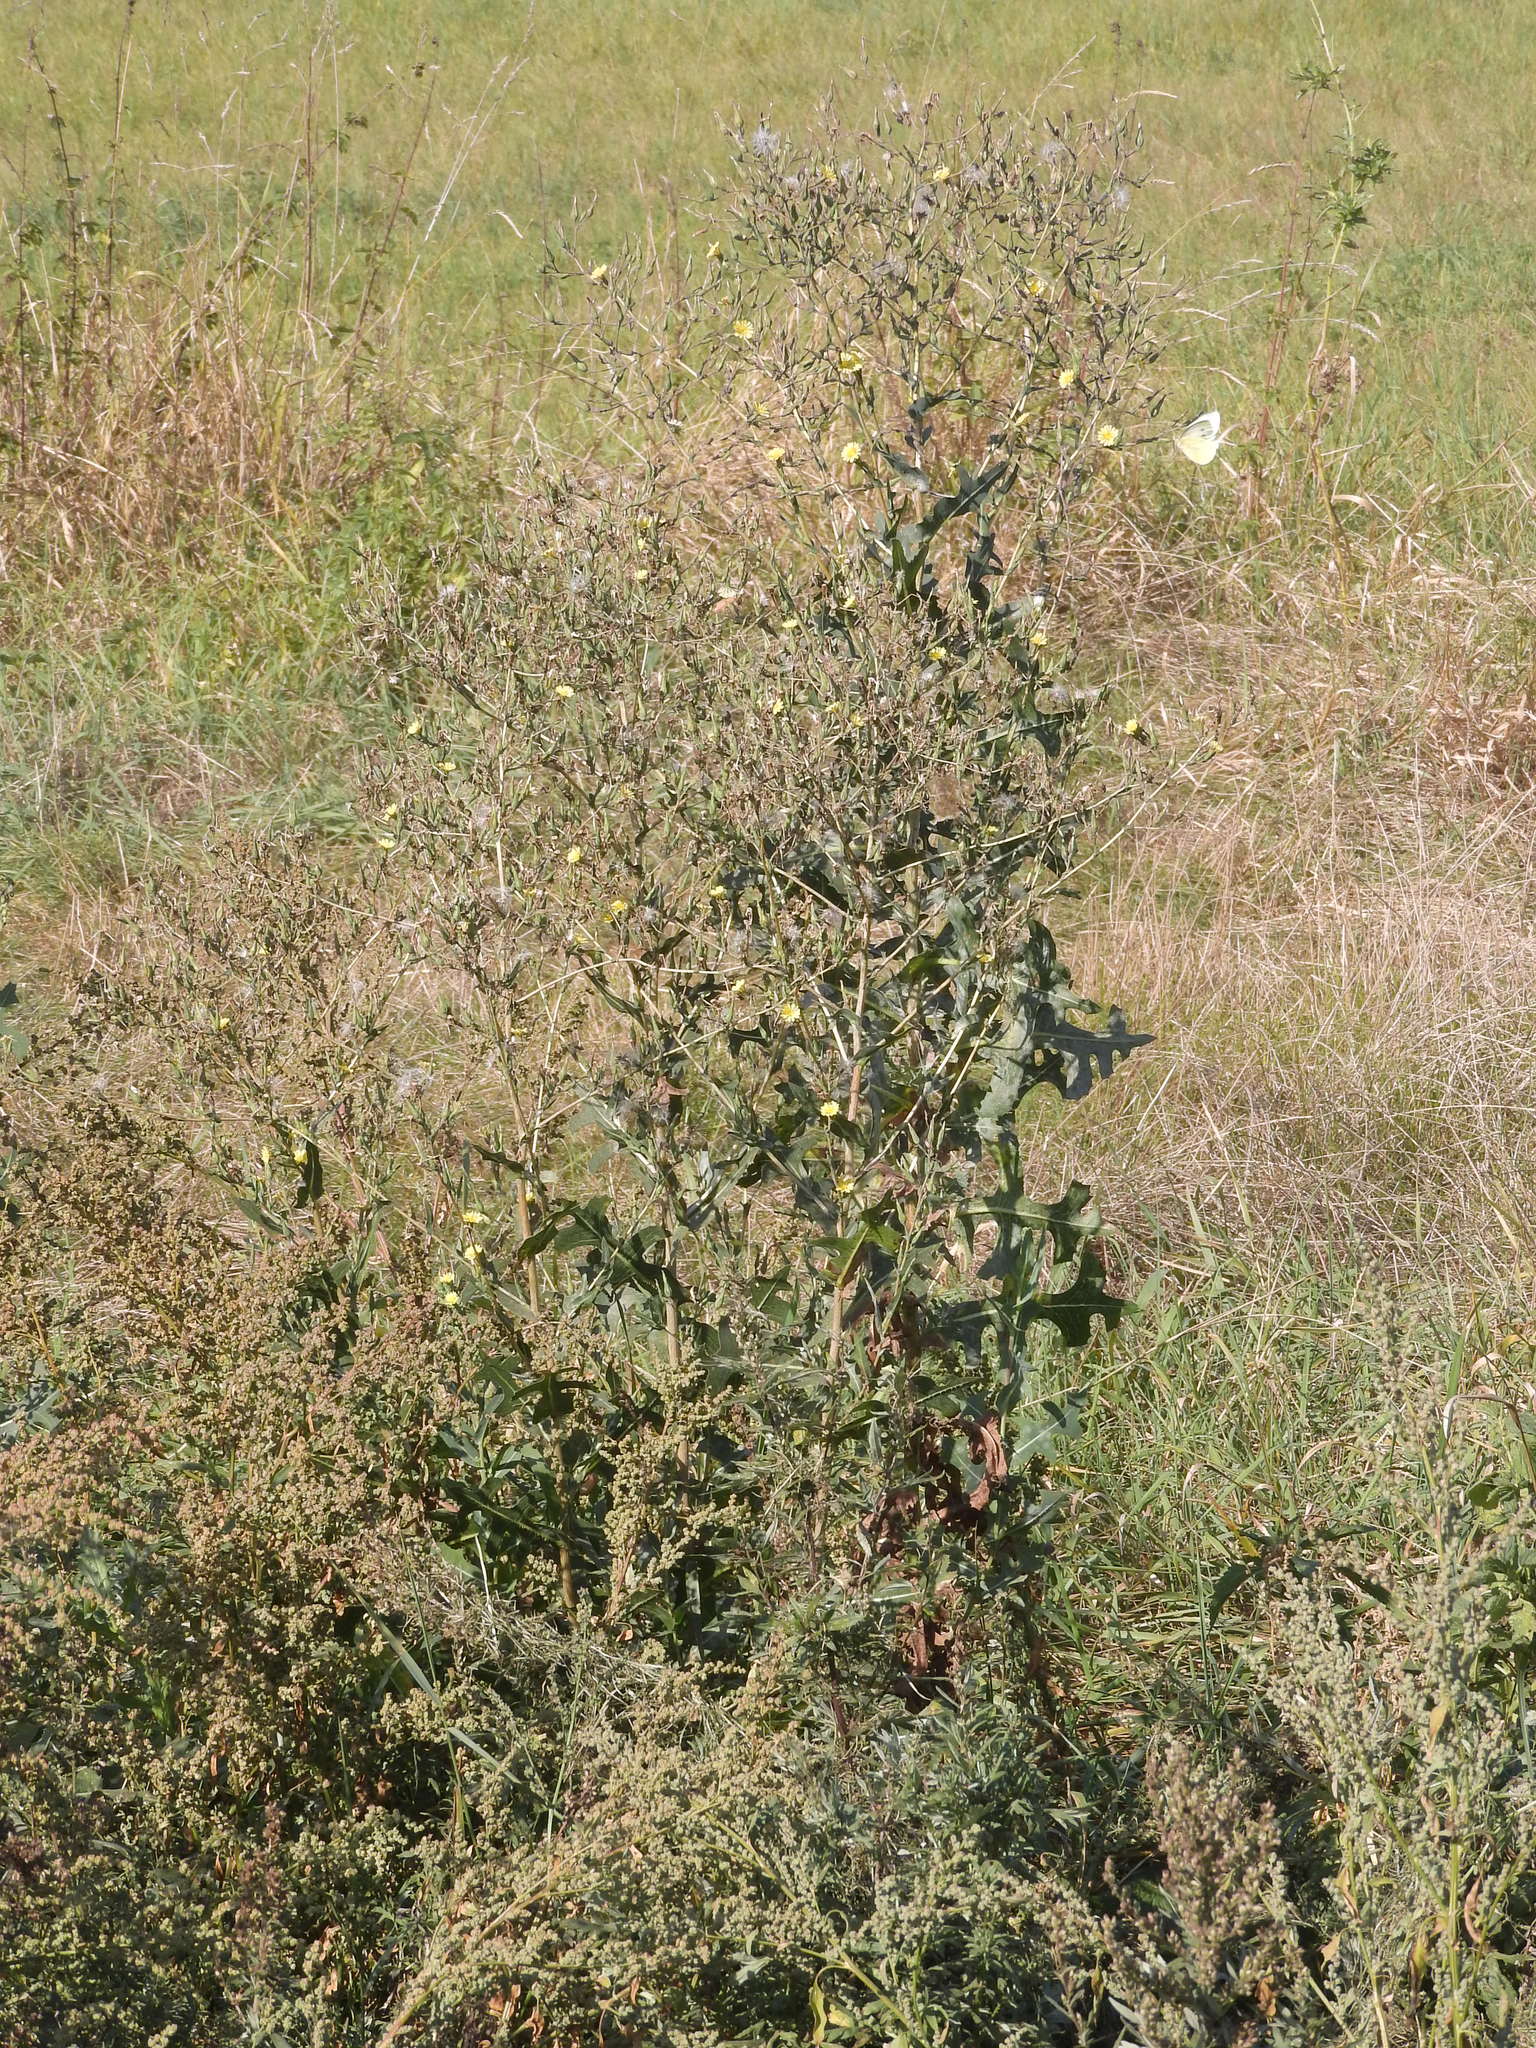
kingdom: Plantae
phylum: Tracheophyta
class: Magnoliopsida
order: Asterales
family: Asteraceae
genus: Lactuca
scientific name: Lactuca serriola
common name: Prickly lettuce
